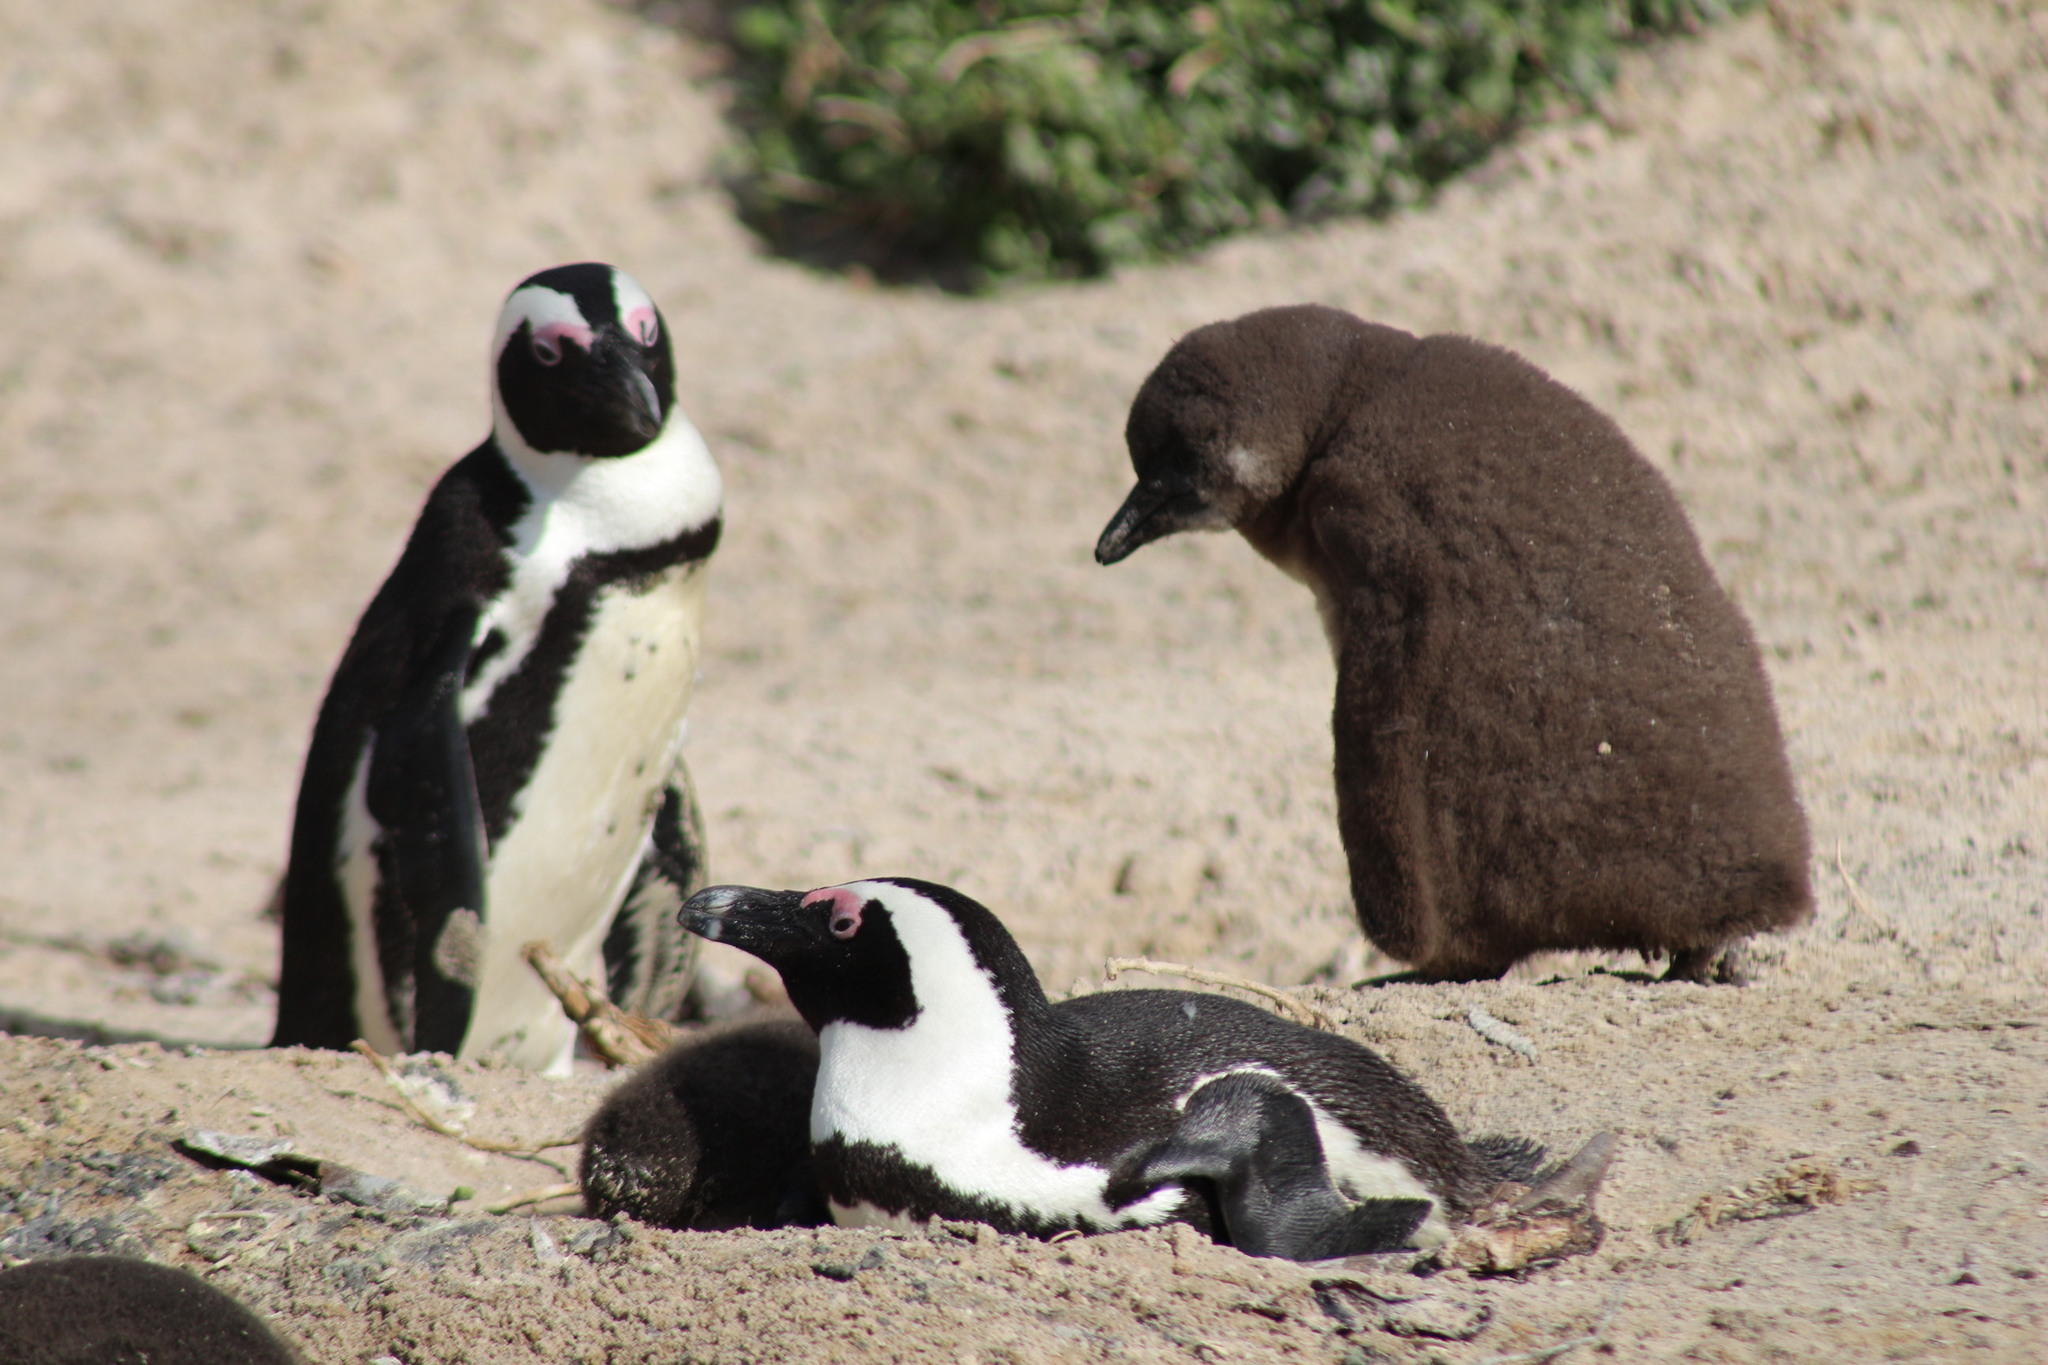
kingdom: Animalia
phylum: Chordata
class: Aves
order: Sphenisciformes
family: Spheniscidae
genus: Spheniscus
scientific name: Spheniscus demersus
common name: African penguin
